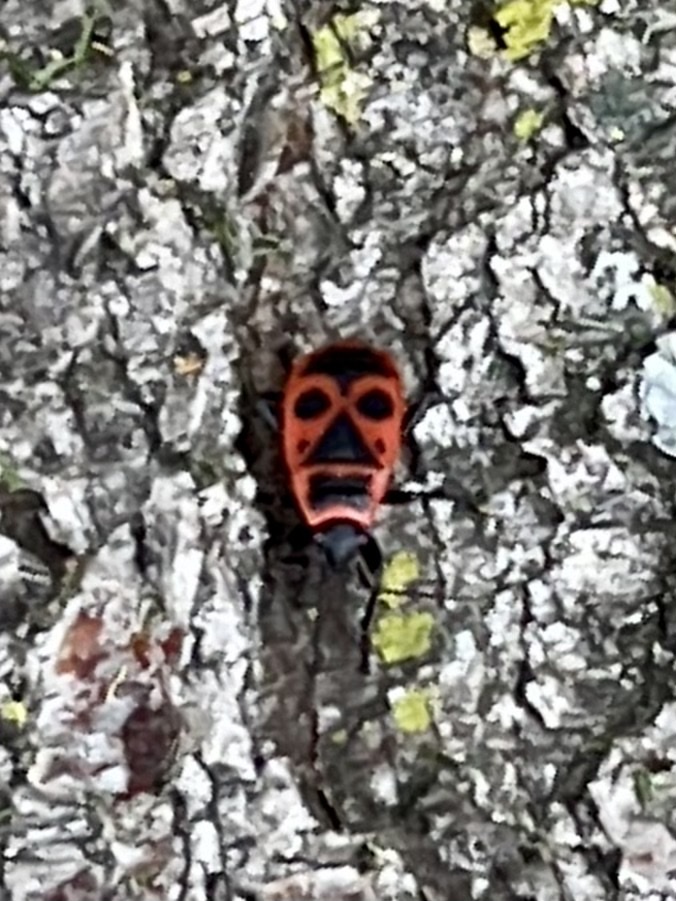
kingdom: Animalia
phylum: Arthropoda
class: Insecta
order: Hemiptera
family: Pyrrhocoridae
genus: Pyrrhocoris
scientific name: Pyrrhocoris apterus
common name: Firebug
